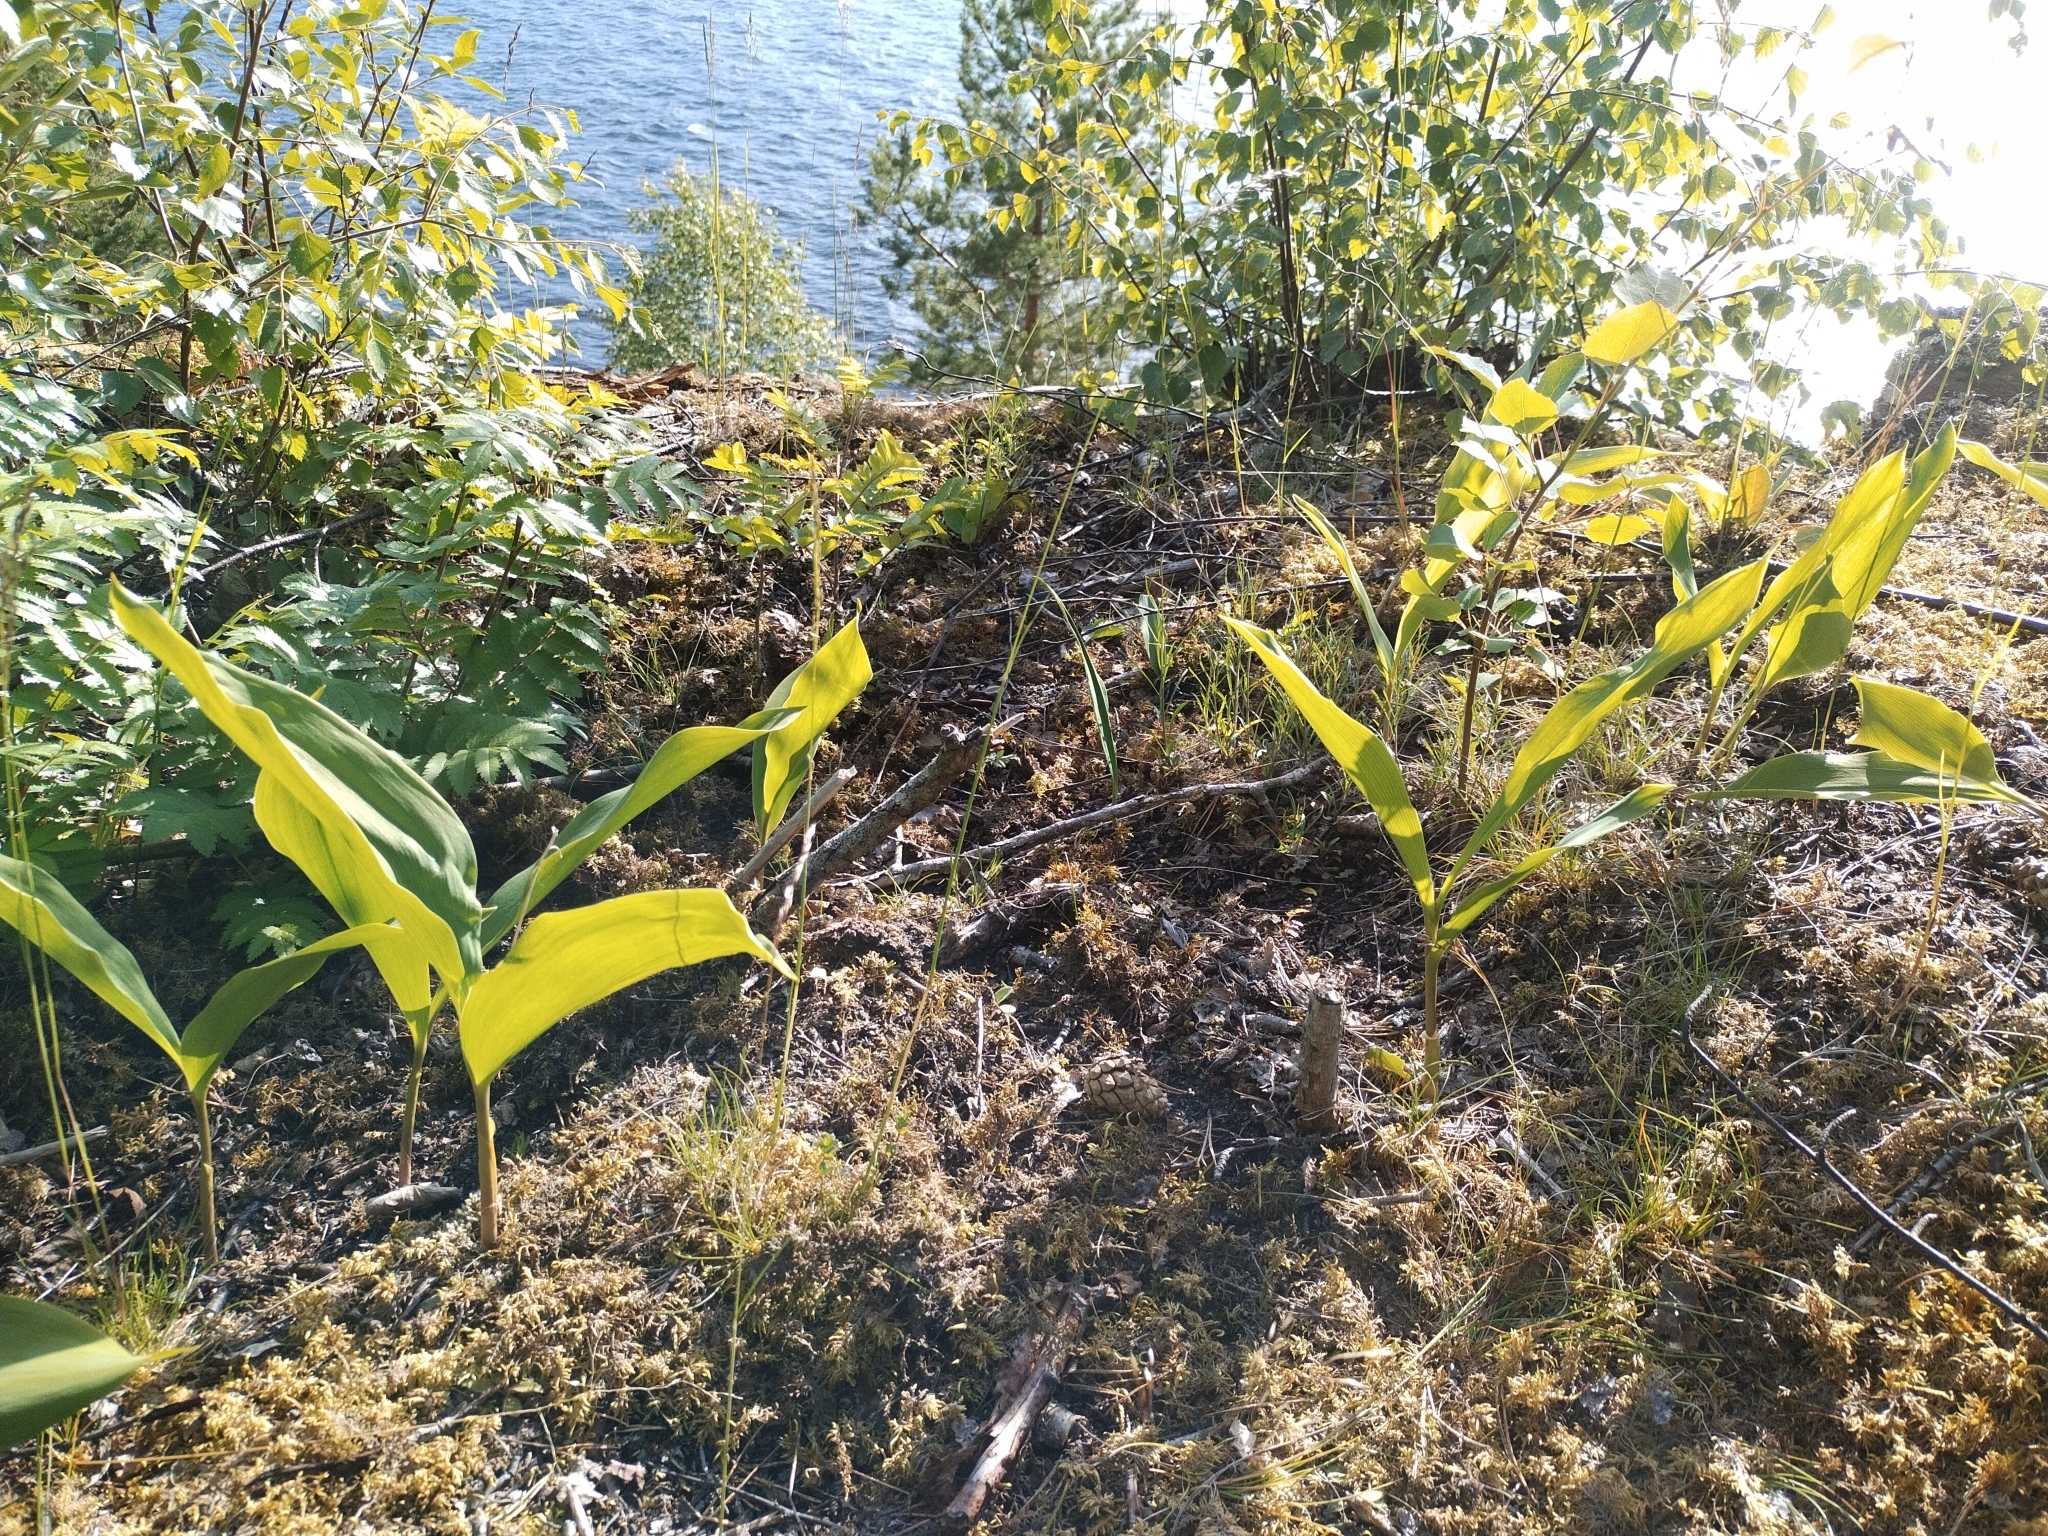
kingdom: Plantae
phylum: Tracheophyta
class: Liliopsida
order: Asparagales
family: Asparagaceae
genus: Convallaria
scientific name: Convallaria majalis
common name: Lily-of-the-valley
